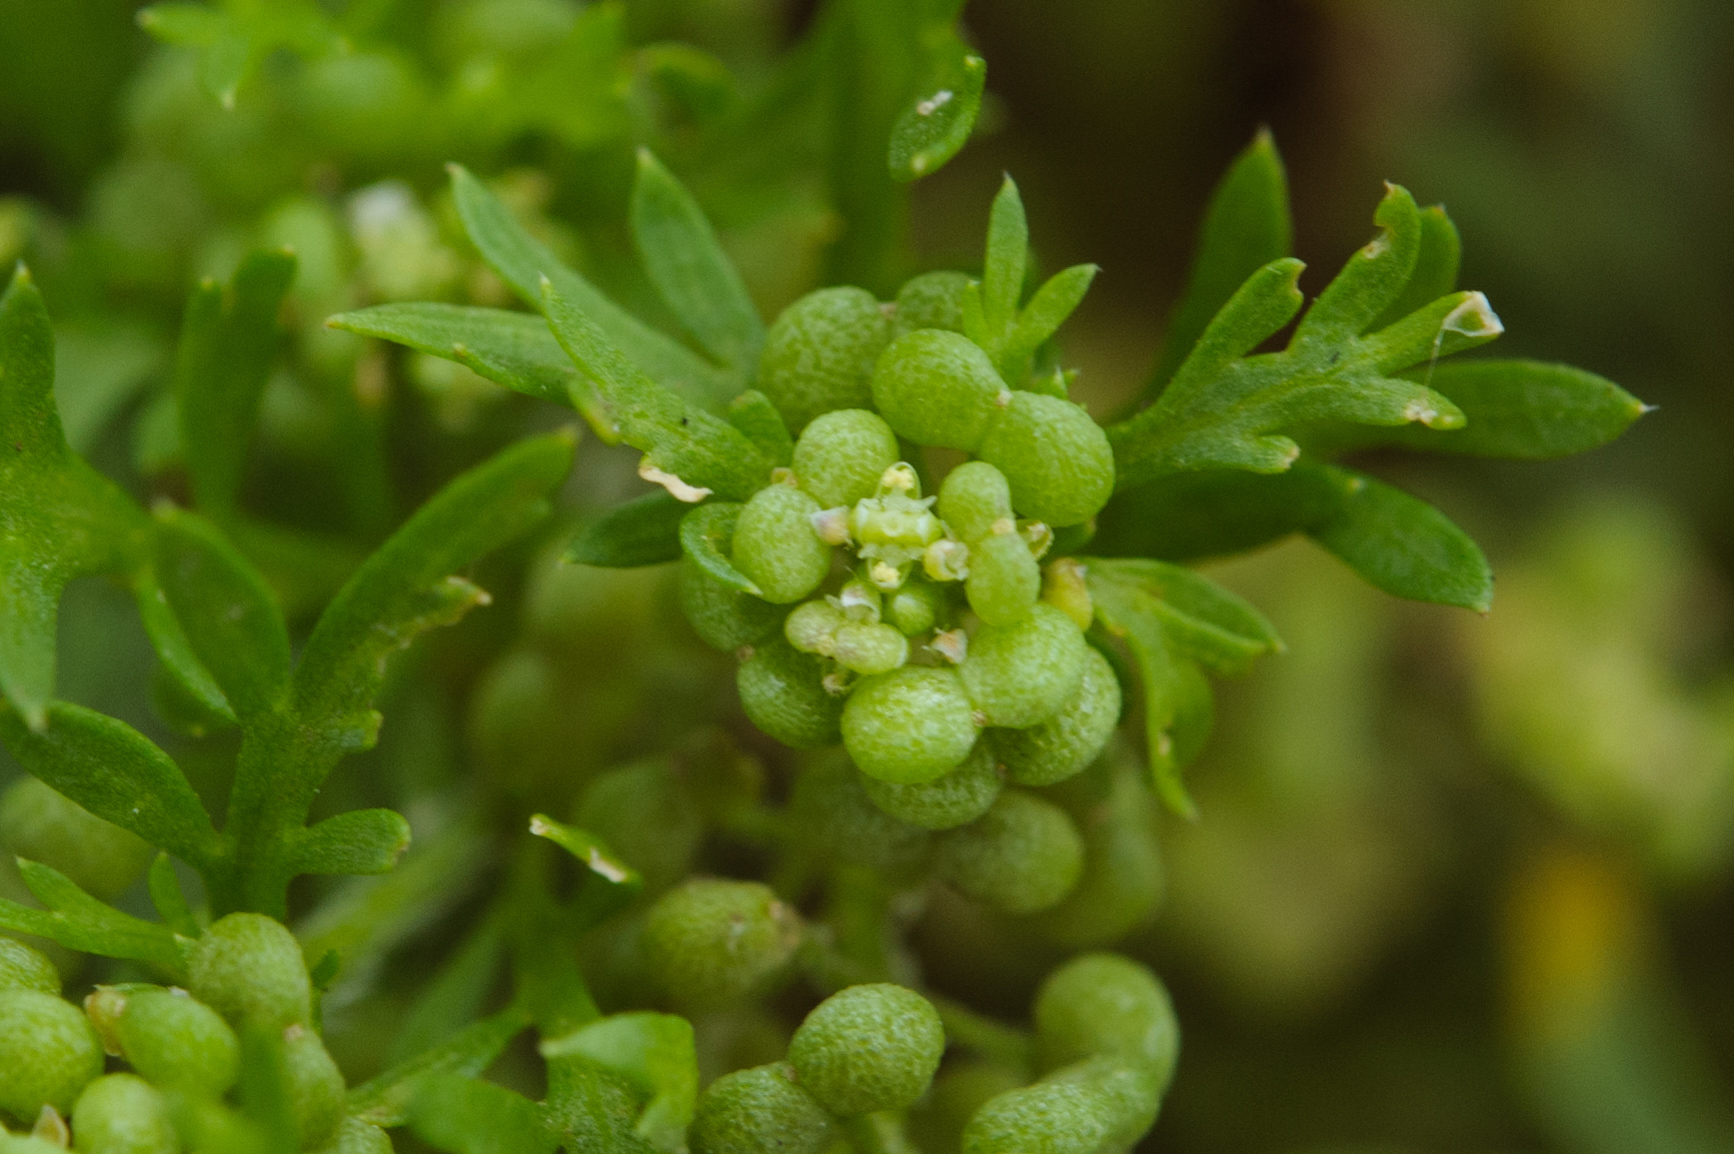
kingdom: Plantae
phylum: Tracheophyta
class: Magnoliopsida
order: Brassicales
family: Brassicaceae
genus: Lepidium
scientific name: Lepidium didymum
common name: Lesser swinecress
